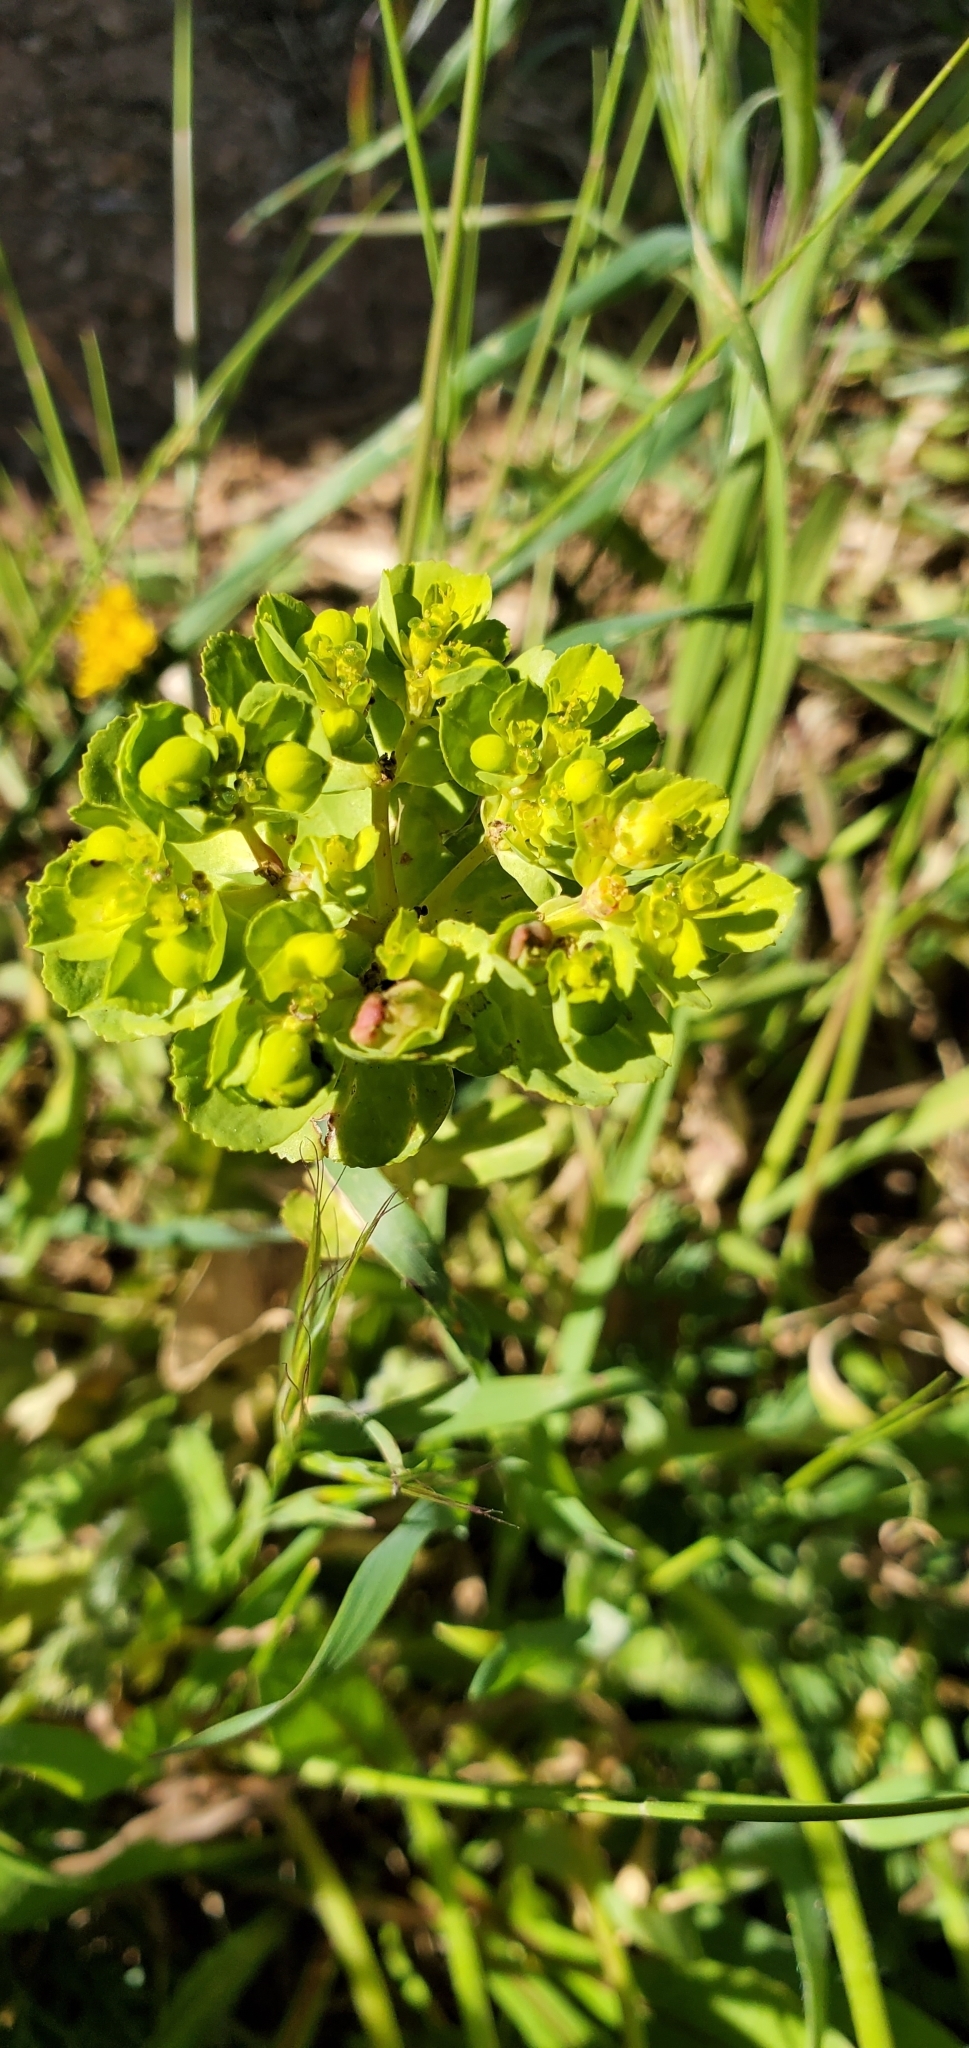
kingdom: Plantae
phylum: Tracheophyta
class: Magnoliopsida
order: Malpighiales
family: Euphorbiaceae
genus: Euphorbia
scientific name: Euphorbia helioscopia
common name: Sun spurge
